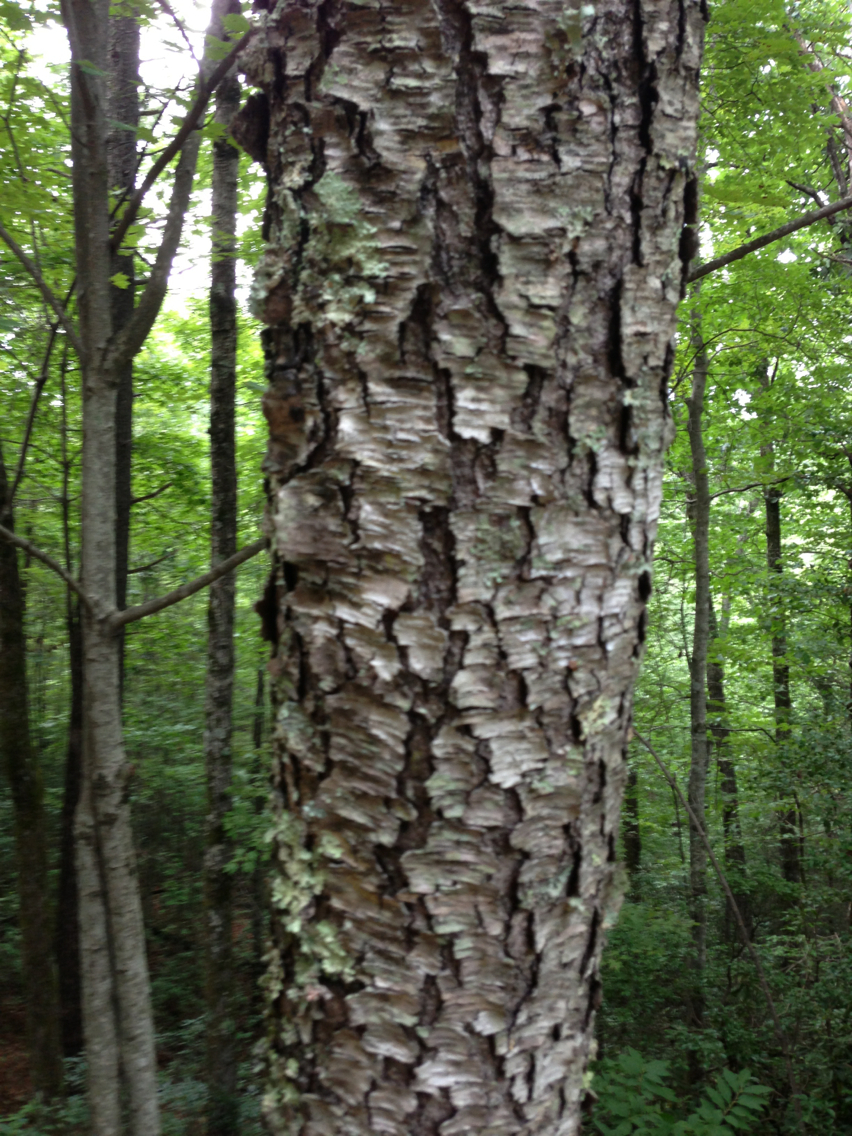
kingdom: Plantae
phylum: Tracheophyta
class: Magnoliopsida
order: Rosales
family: Rosaceae
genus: Prunus
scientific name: Prunus serotina
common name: Black cherry
